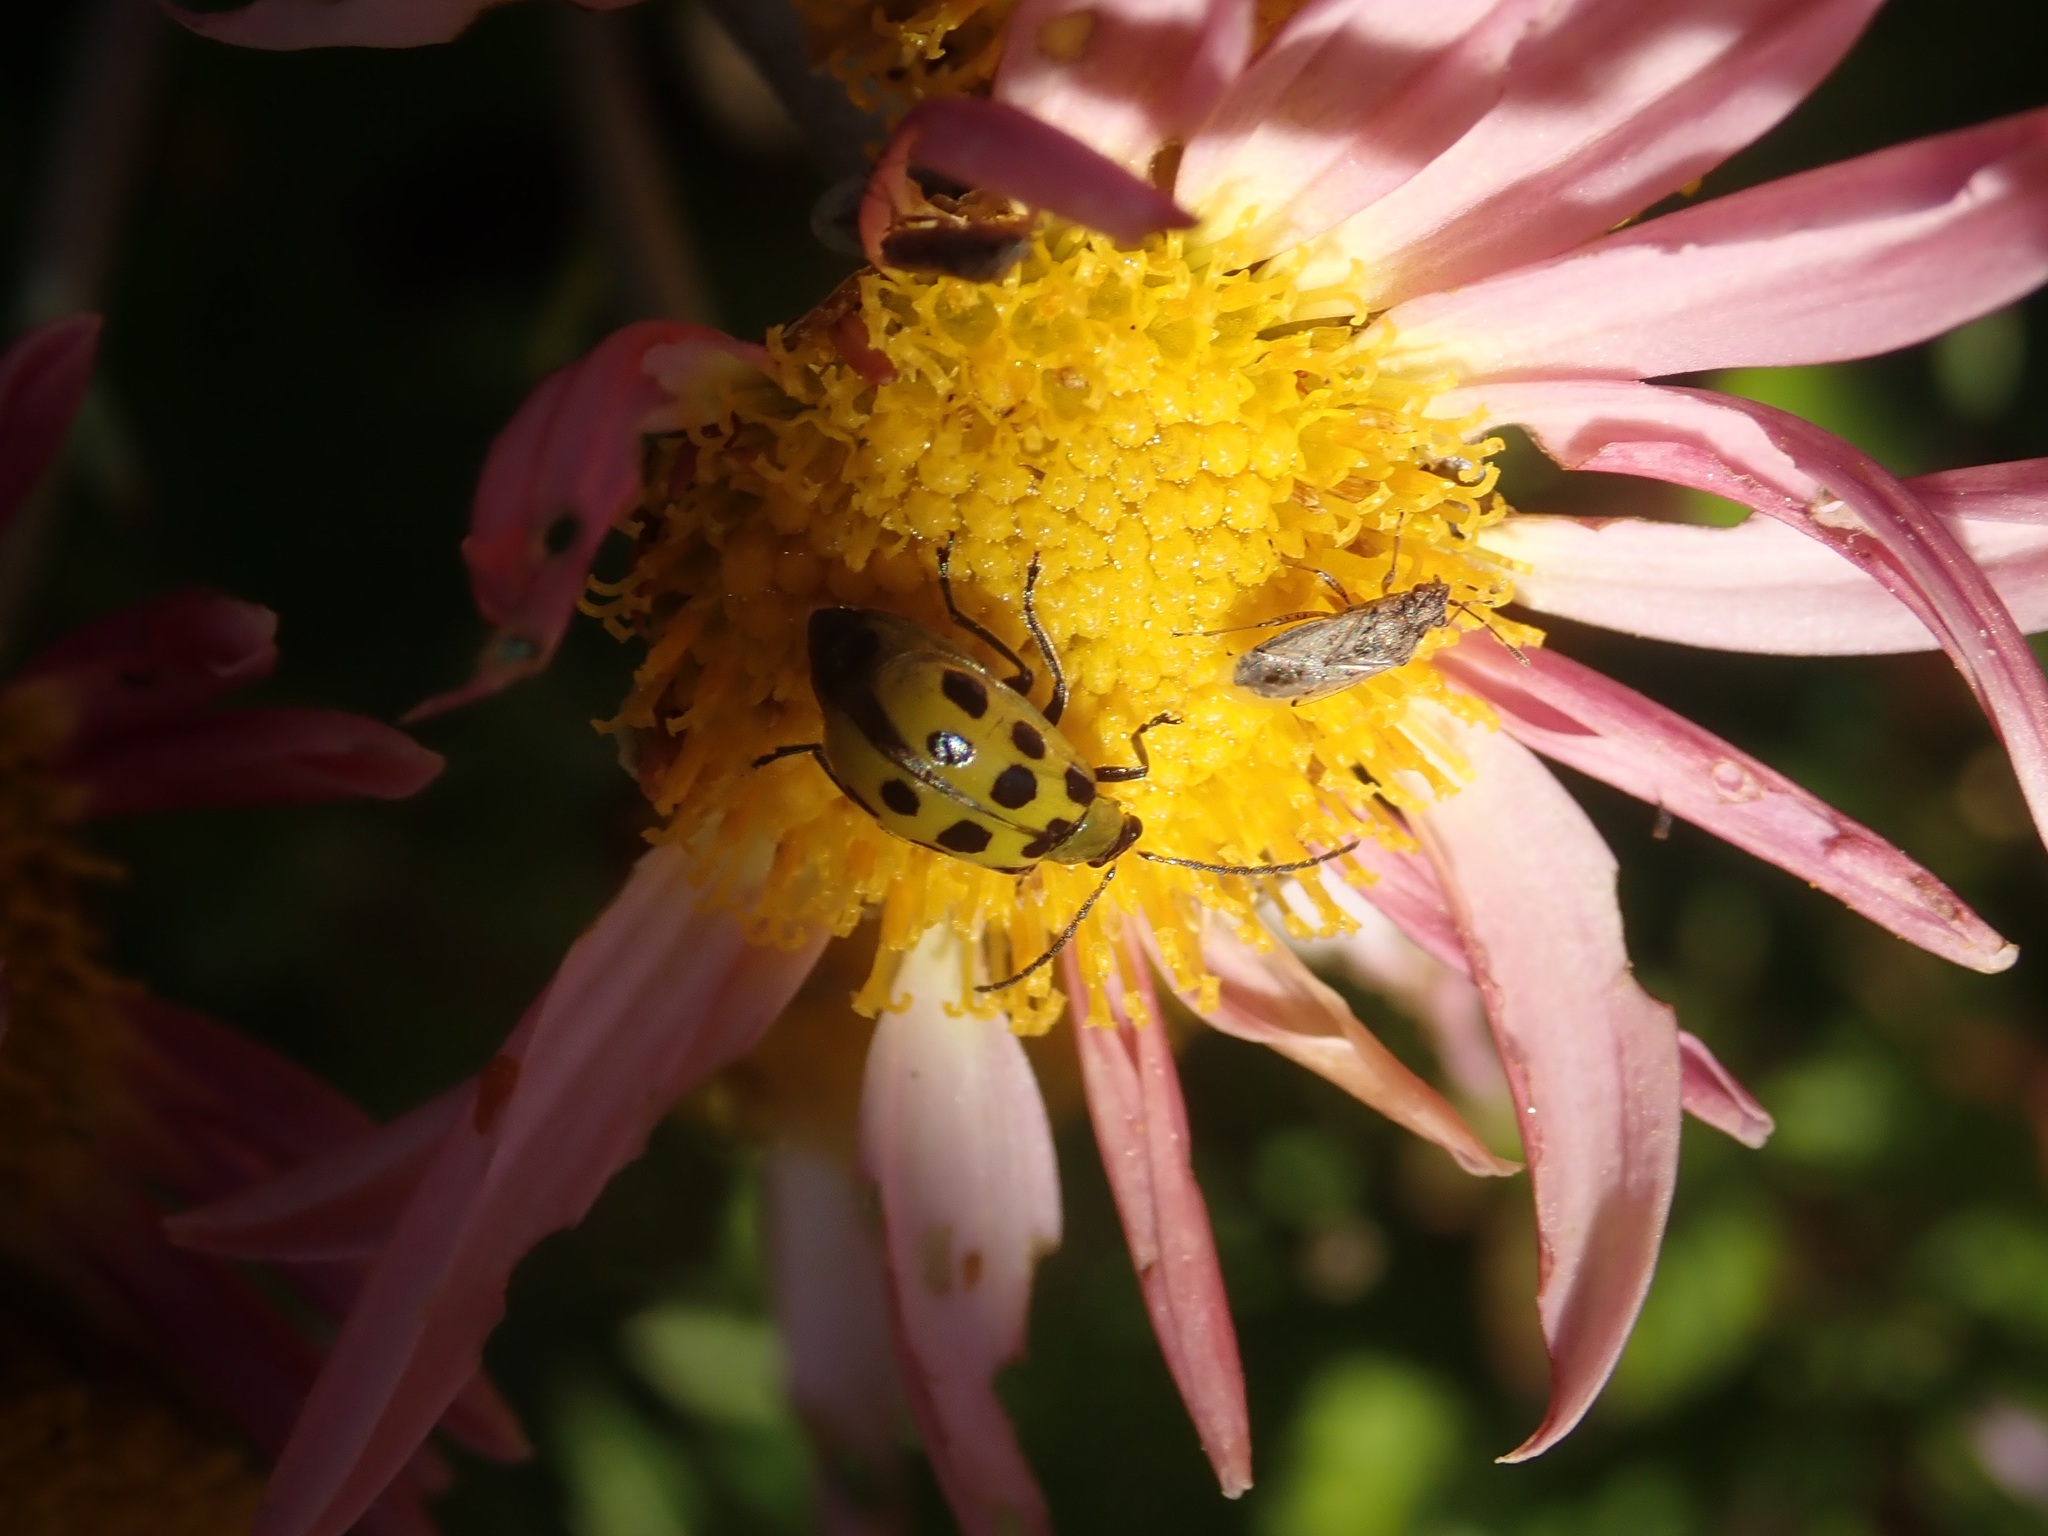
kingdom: Animalia
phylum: Arthropoda
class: Insecta
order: Coleoptera
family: Chrysomelidae
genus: Diabrotica
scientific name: Diabrotica undecimpunctata
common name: Spotted cucumber beetle
